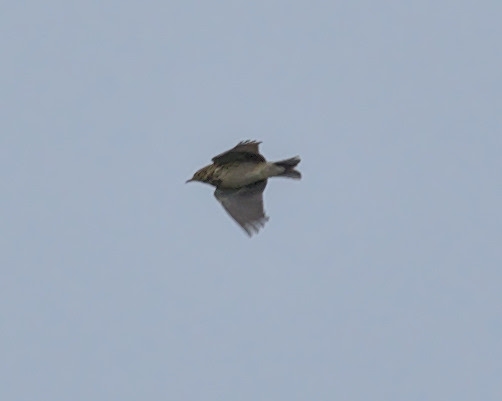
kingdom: Animalia
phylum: Chordata
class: Aves
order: Passeriformes
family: Alaudidae
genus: Alauda
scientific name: Alauda arvensis
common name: Eurasian skylark
